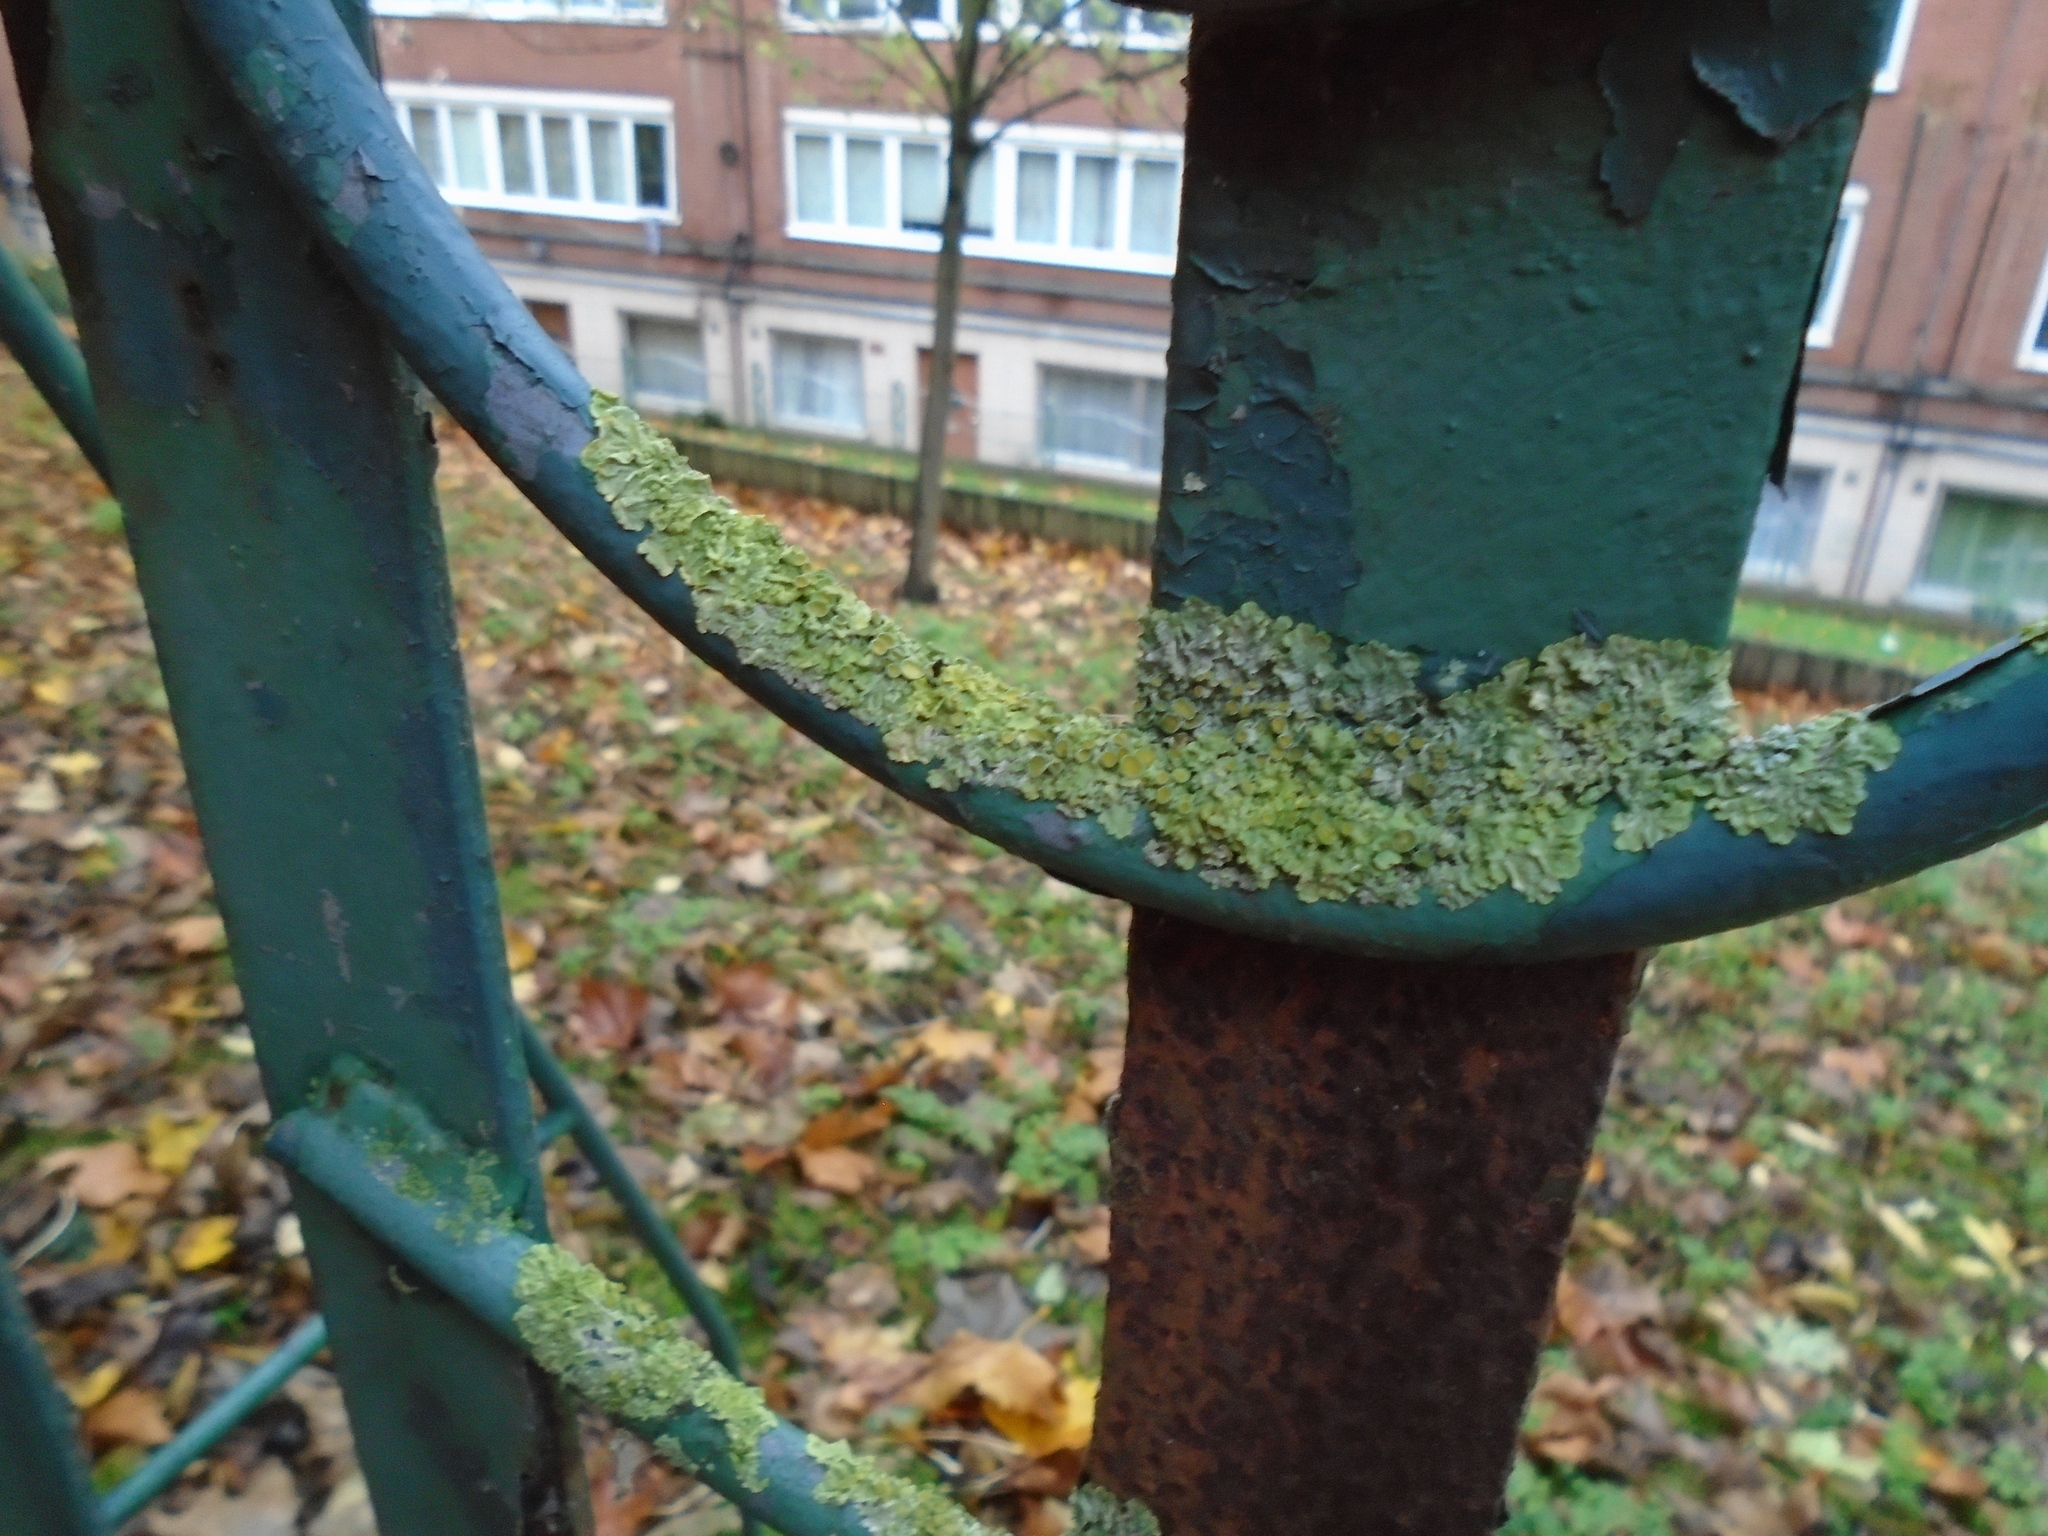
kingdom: Fungi
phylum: Ascomycota
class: Lecanoromycetes
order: Teloschistales
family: Teloschistaceae
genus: Xanthoria
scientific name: Xanthoria parietina
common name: Common orange lichen
